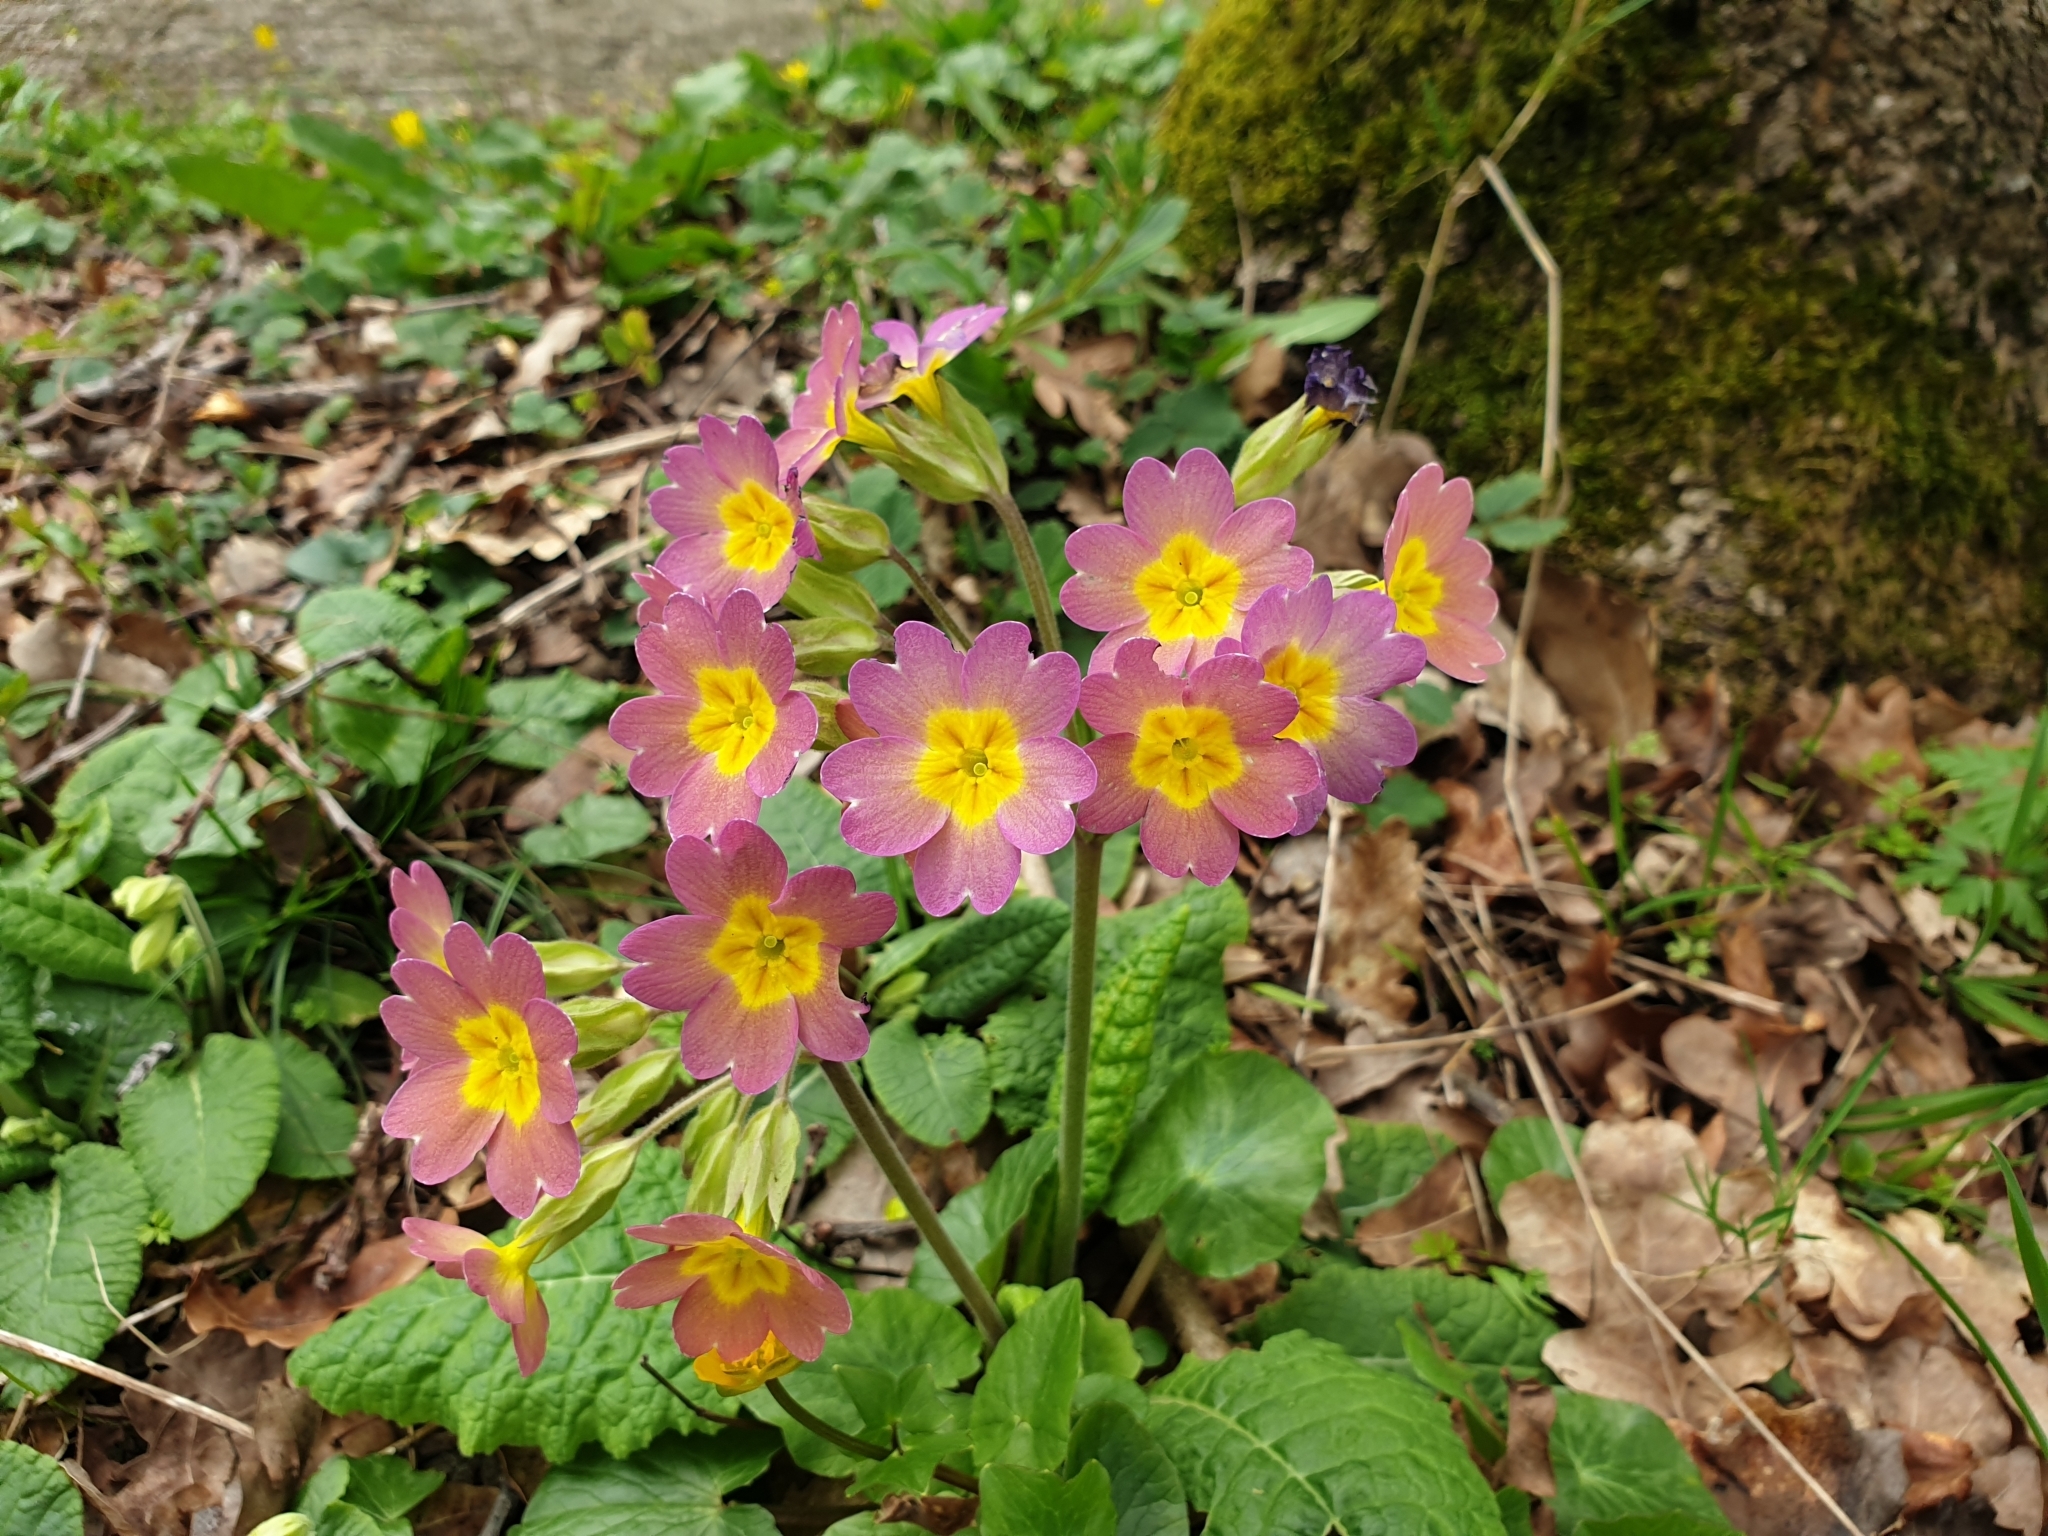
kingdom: Plantae
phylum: Tracheophyta
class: Magnoliopsida
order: Ericales
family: Primulaceae
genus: Primula
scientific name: Primula polyantha
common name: False oxlip
